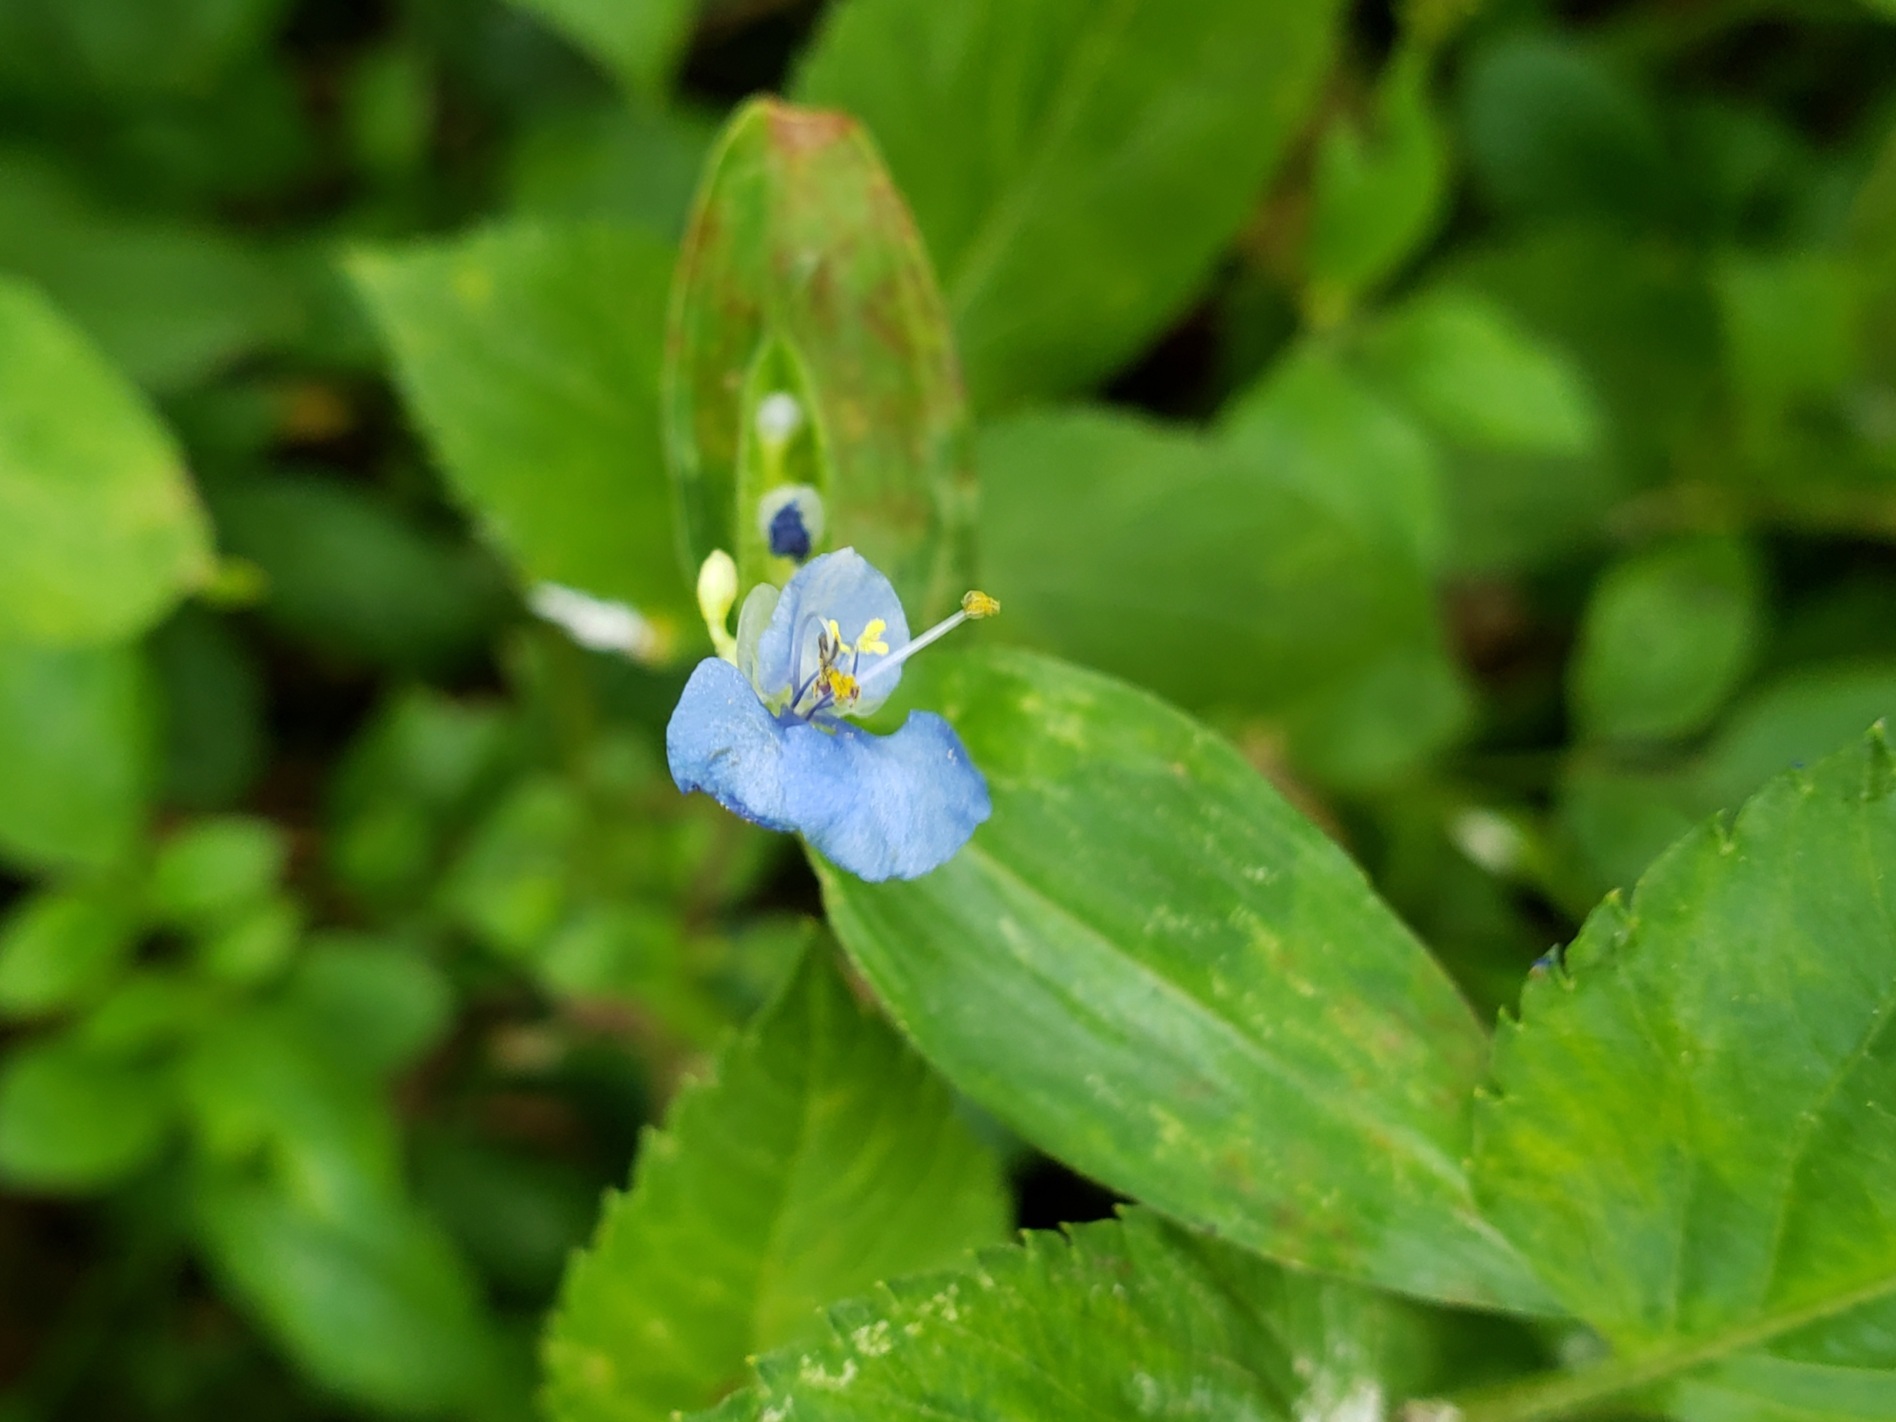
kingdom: Plantae
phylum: Tracheophyta
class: Liliopsida
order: Commelinales
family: Commelinaceae
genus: Commelina
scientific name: Commelina diffusa
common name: Climbing dayflower
